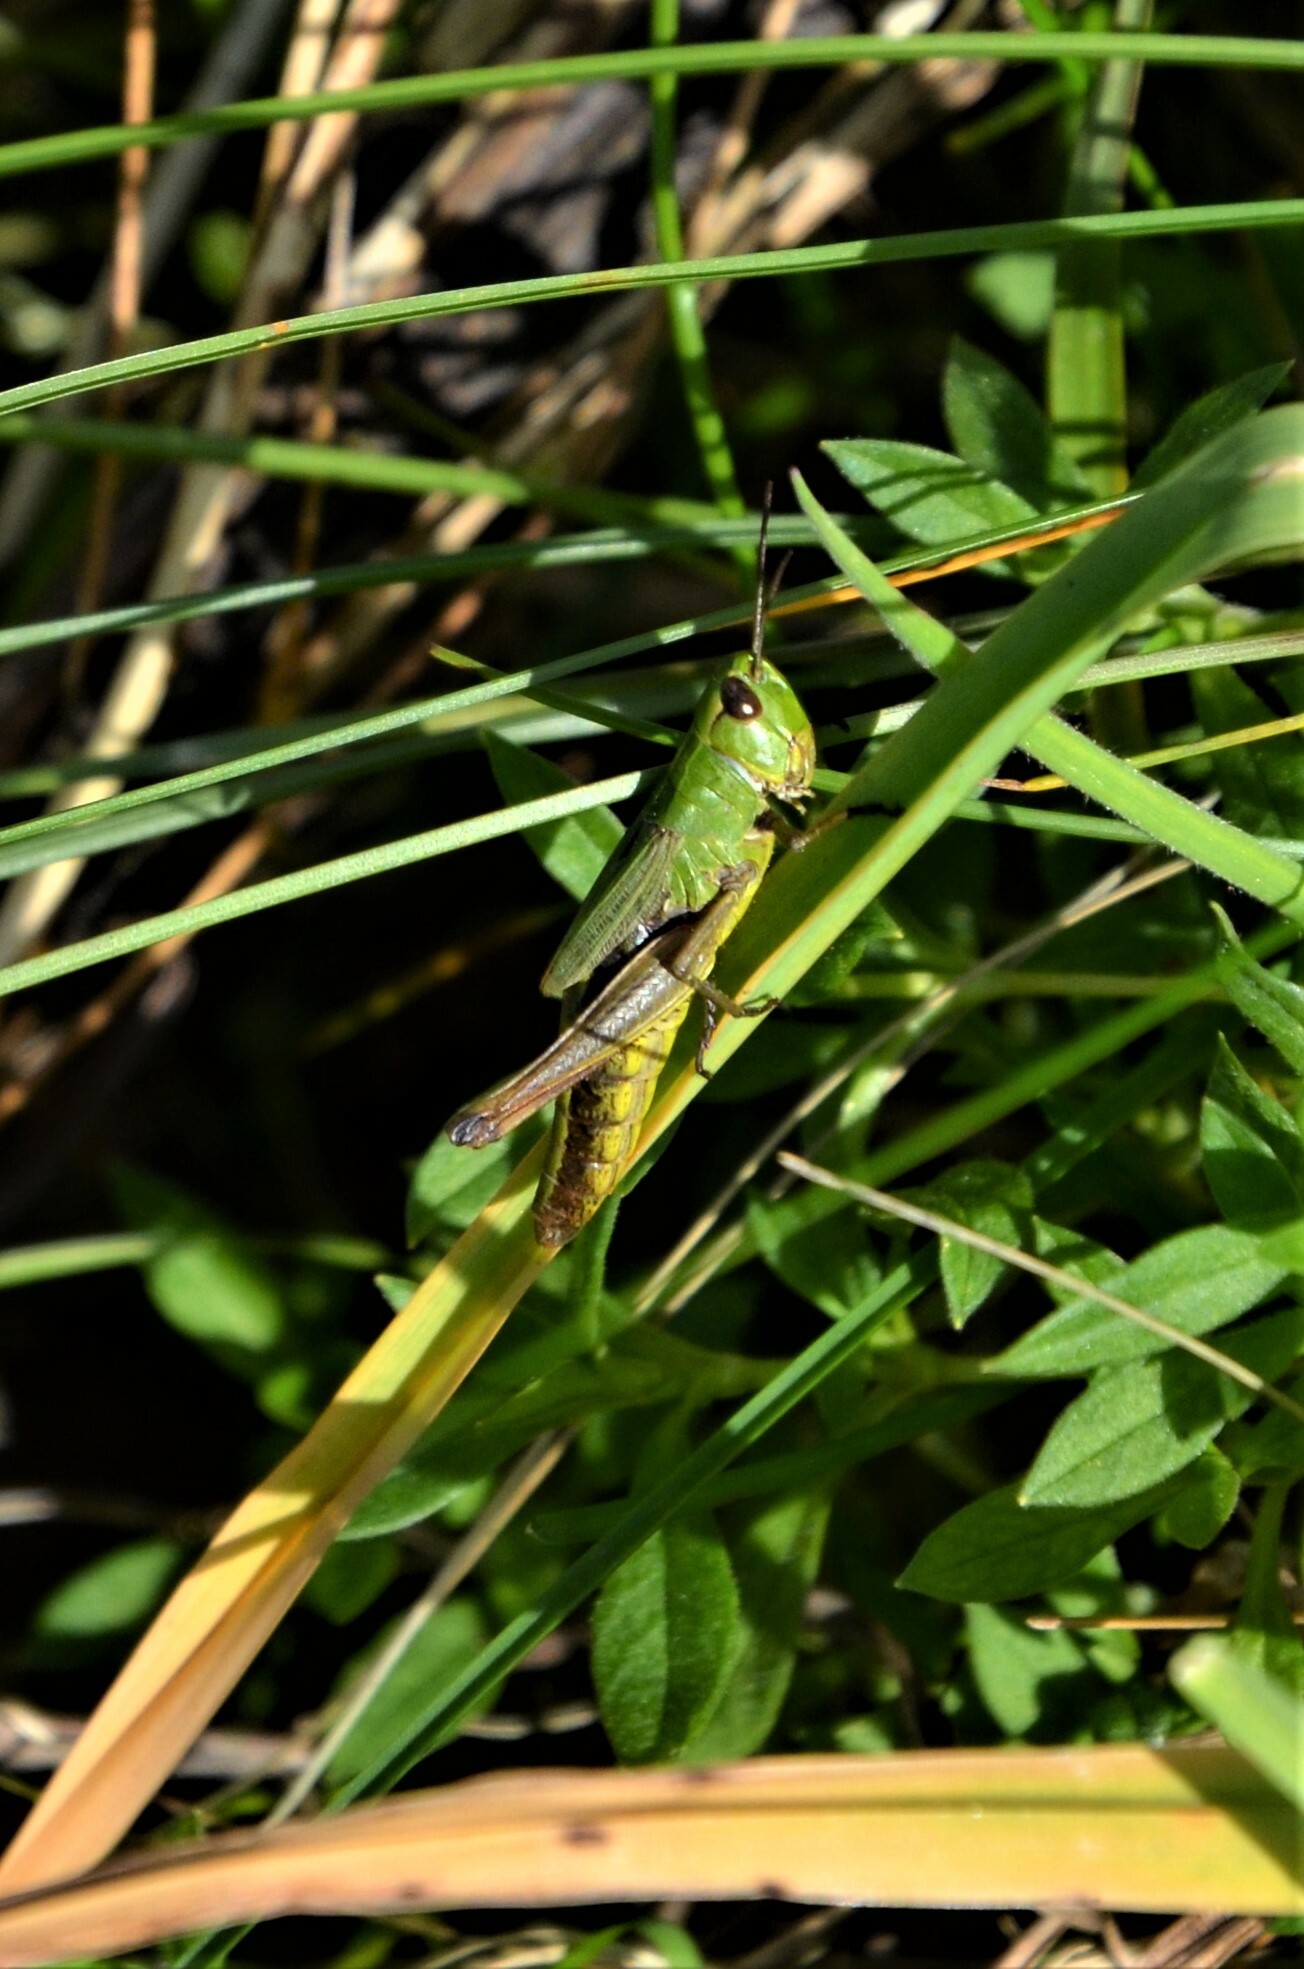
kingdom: Animalia
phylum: Arthropoda
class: Insecta
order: Orthoptera
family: Acrididae
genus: Pseudochorthippus
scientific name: Pseudochorthippus parallelus
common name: Meadow grasshopper
